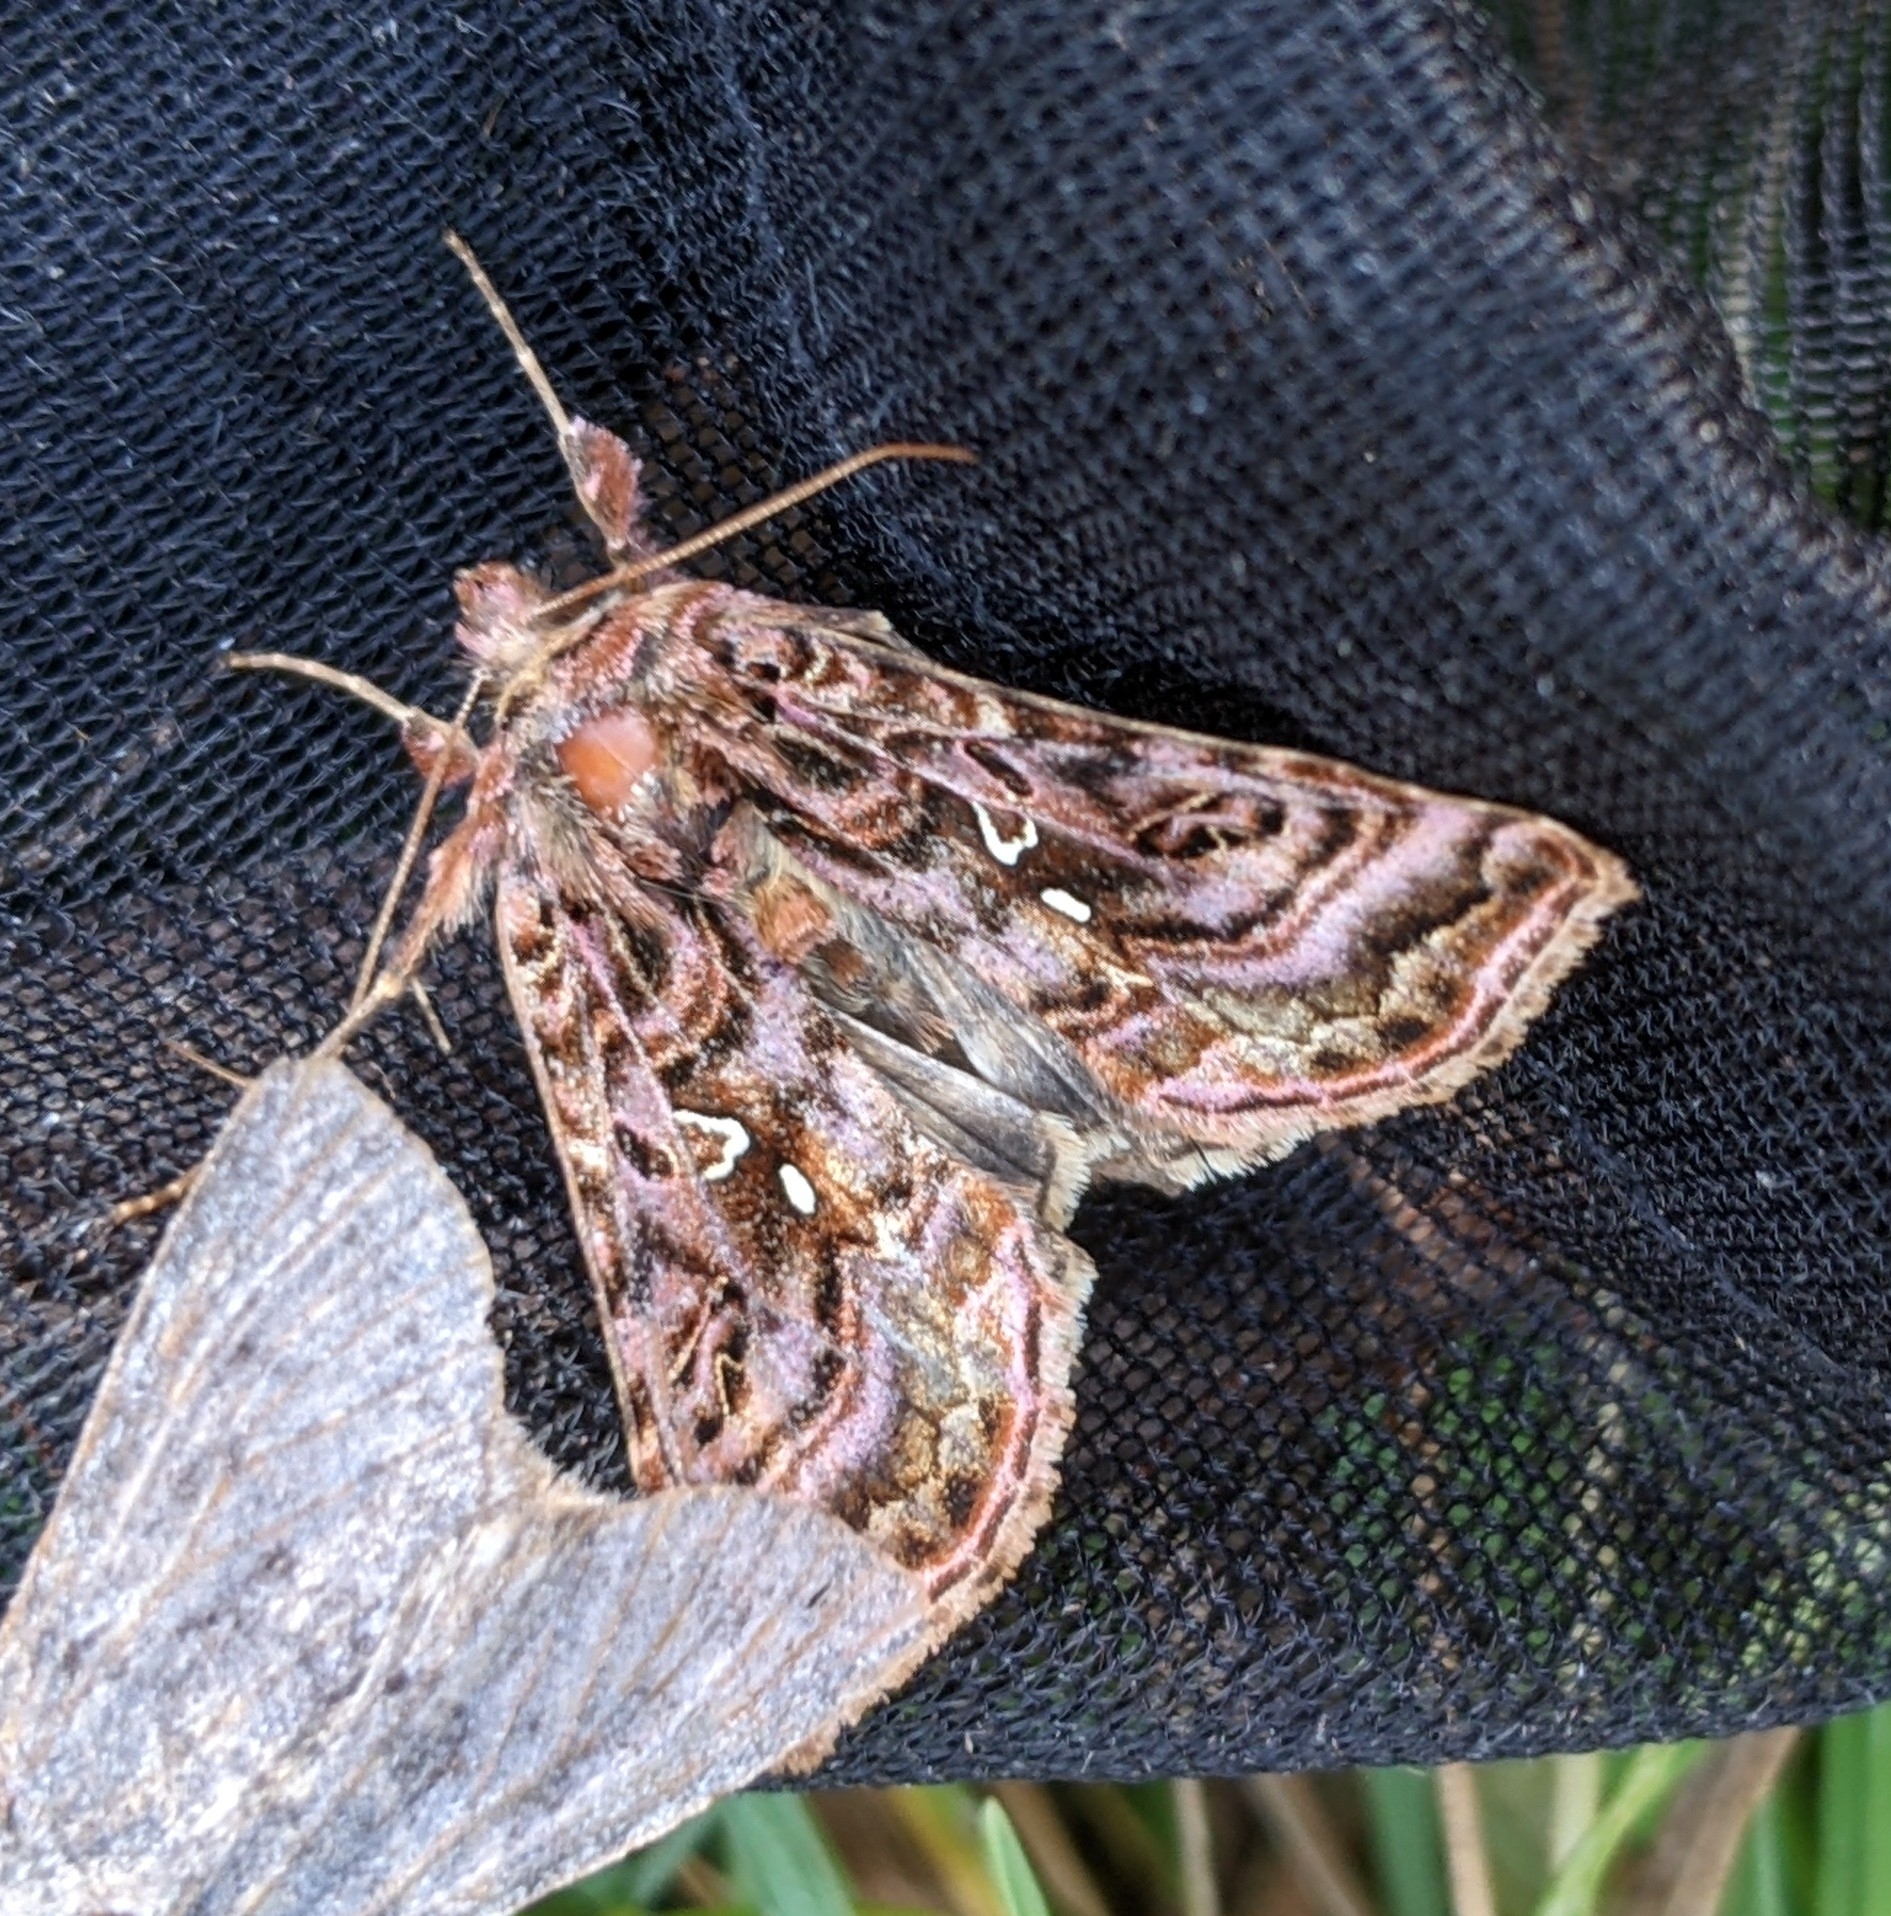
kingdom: Animalia
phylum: Arthropoda
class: Insecta
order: Lepidoptera
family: Noctuidae
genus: Autographa
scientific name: Autographa mappa
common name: Wavy chestnut y moth
